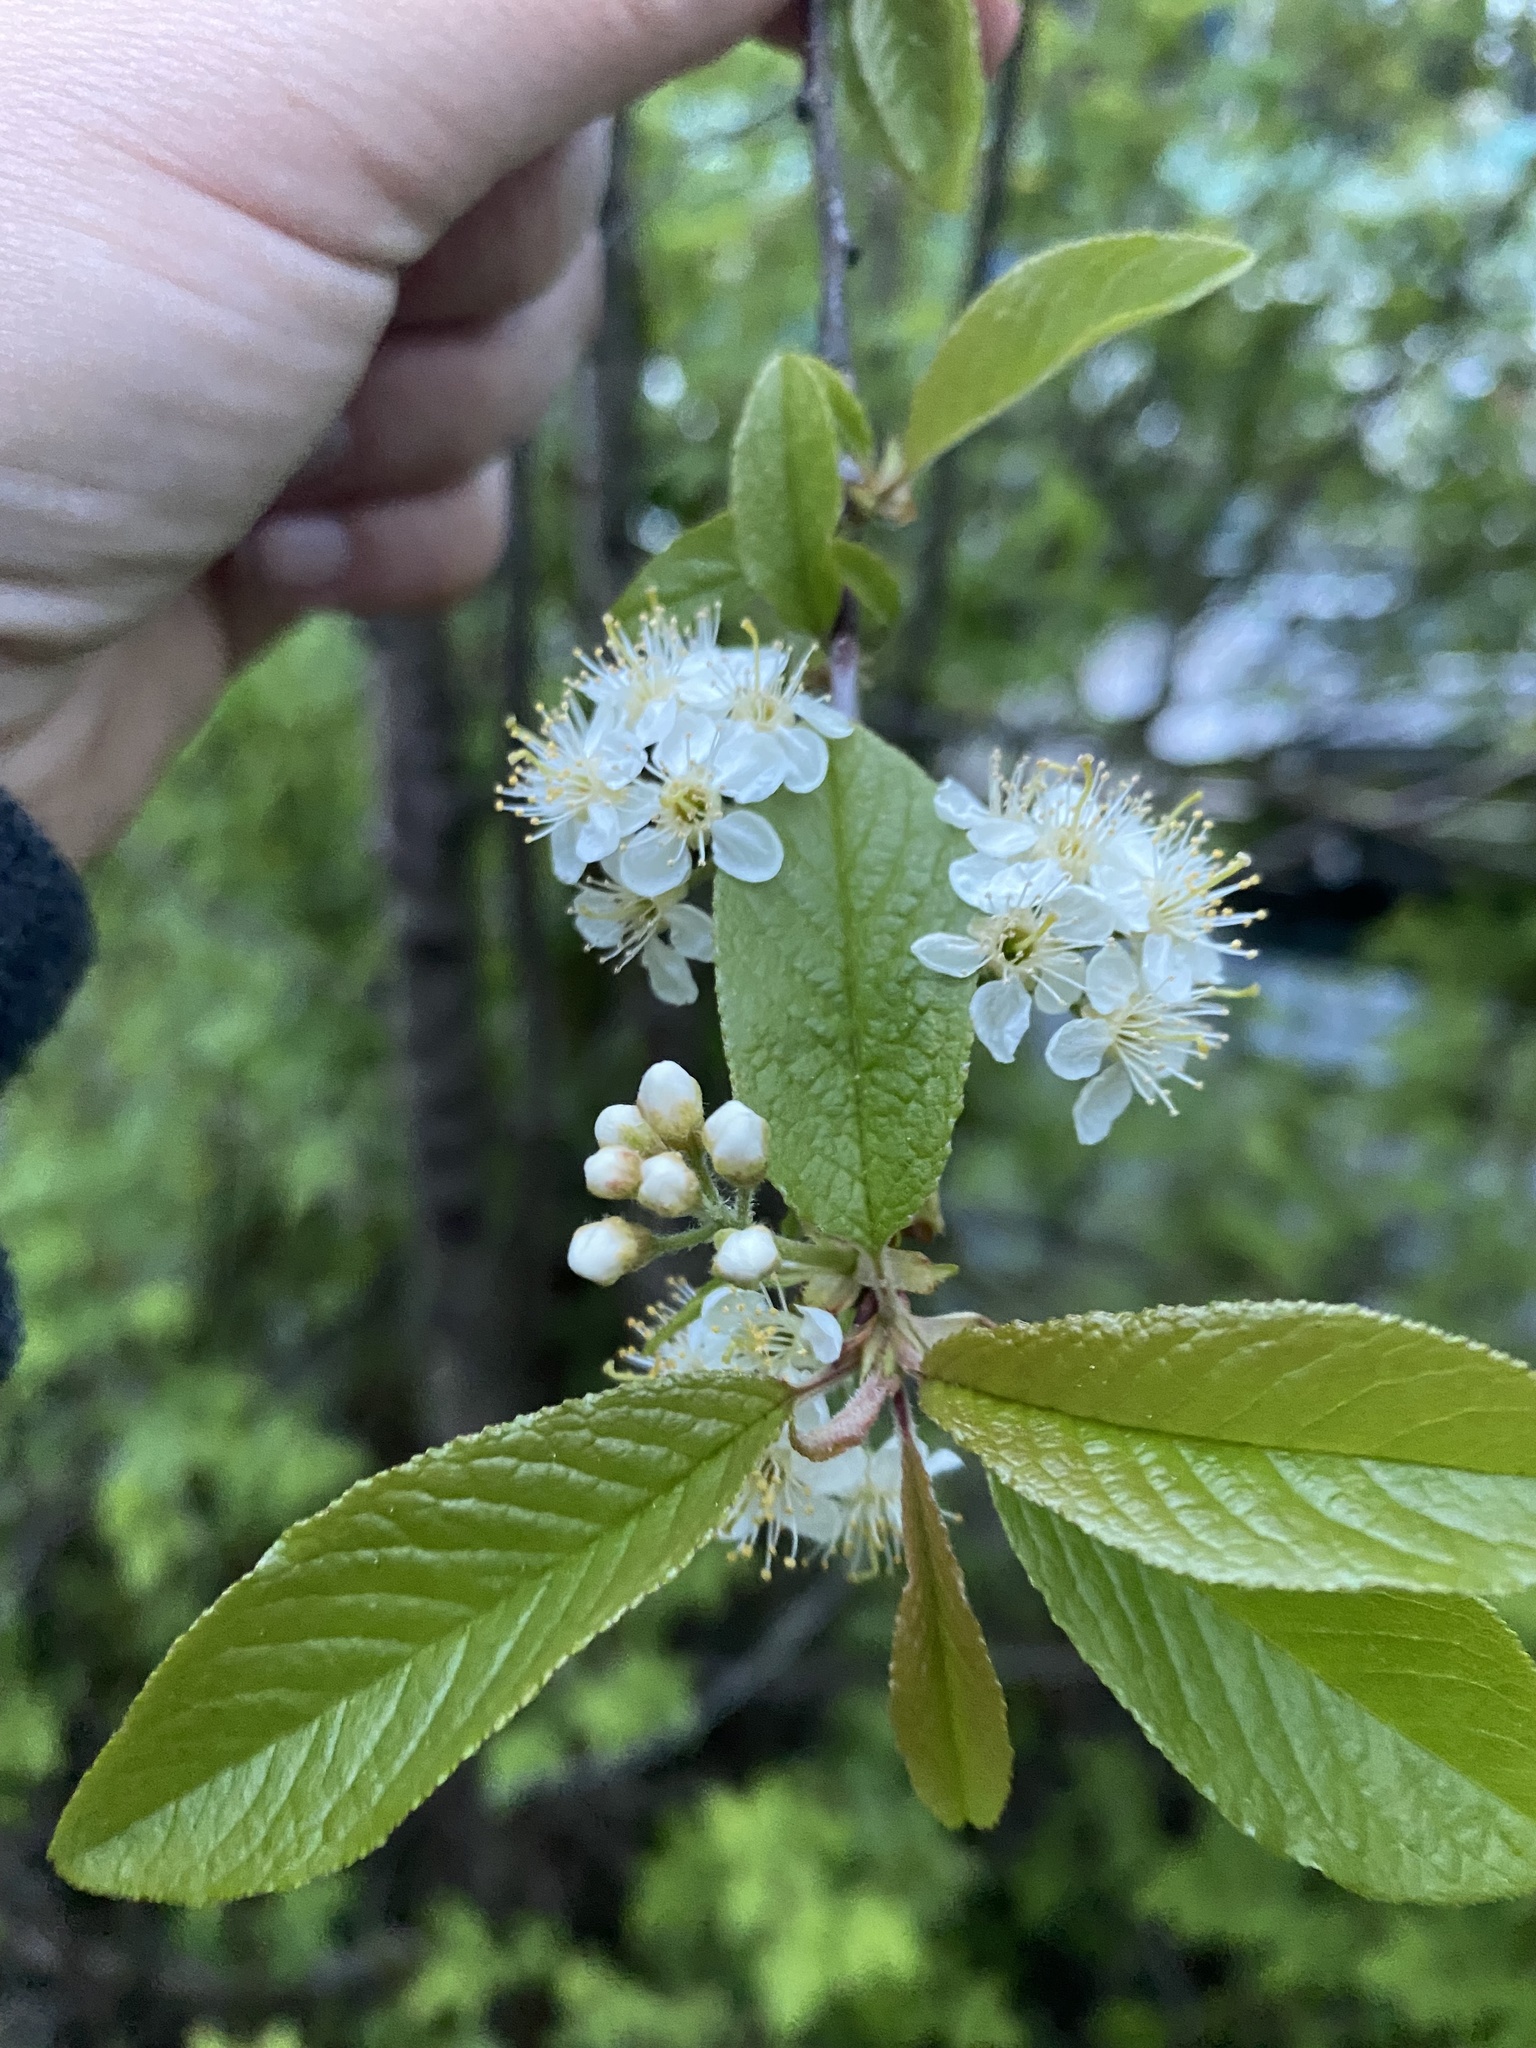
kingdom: Plantae
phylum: Tracheophyta
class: Magnoliopsida
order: Rosales
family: Rosaceae
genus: Prunus
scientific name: Prunus emarginata
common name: Bitter cherry
